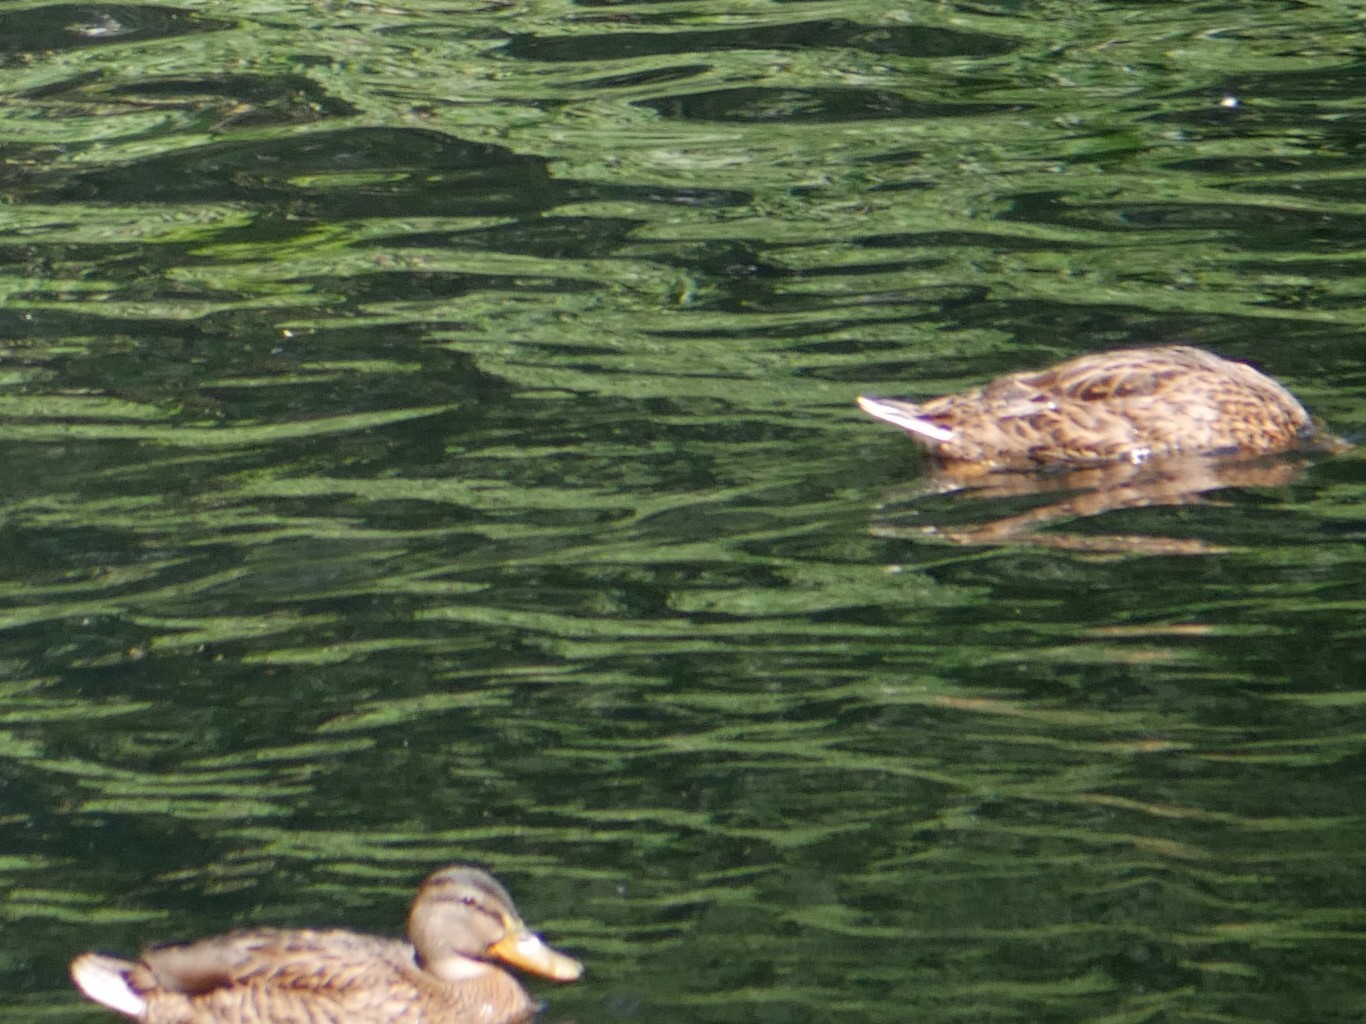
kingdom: Animalia
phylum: Chordata
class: Aves
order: Anseriformes
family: Anatidae
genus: Anas
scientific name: Anas platyrhynchos
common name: Mallard
